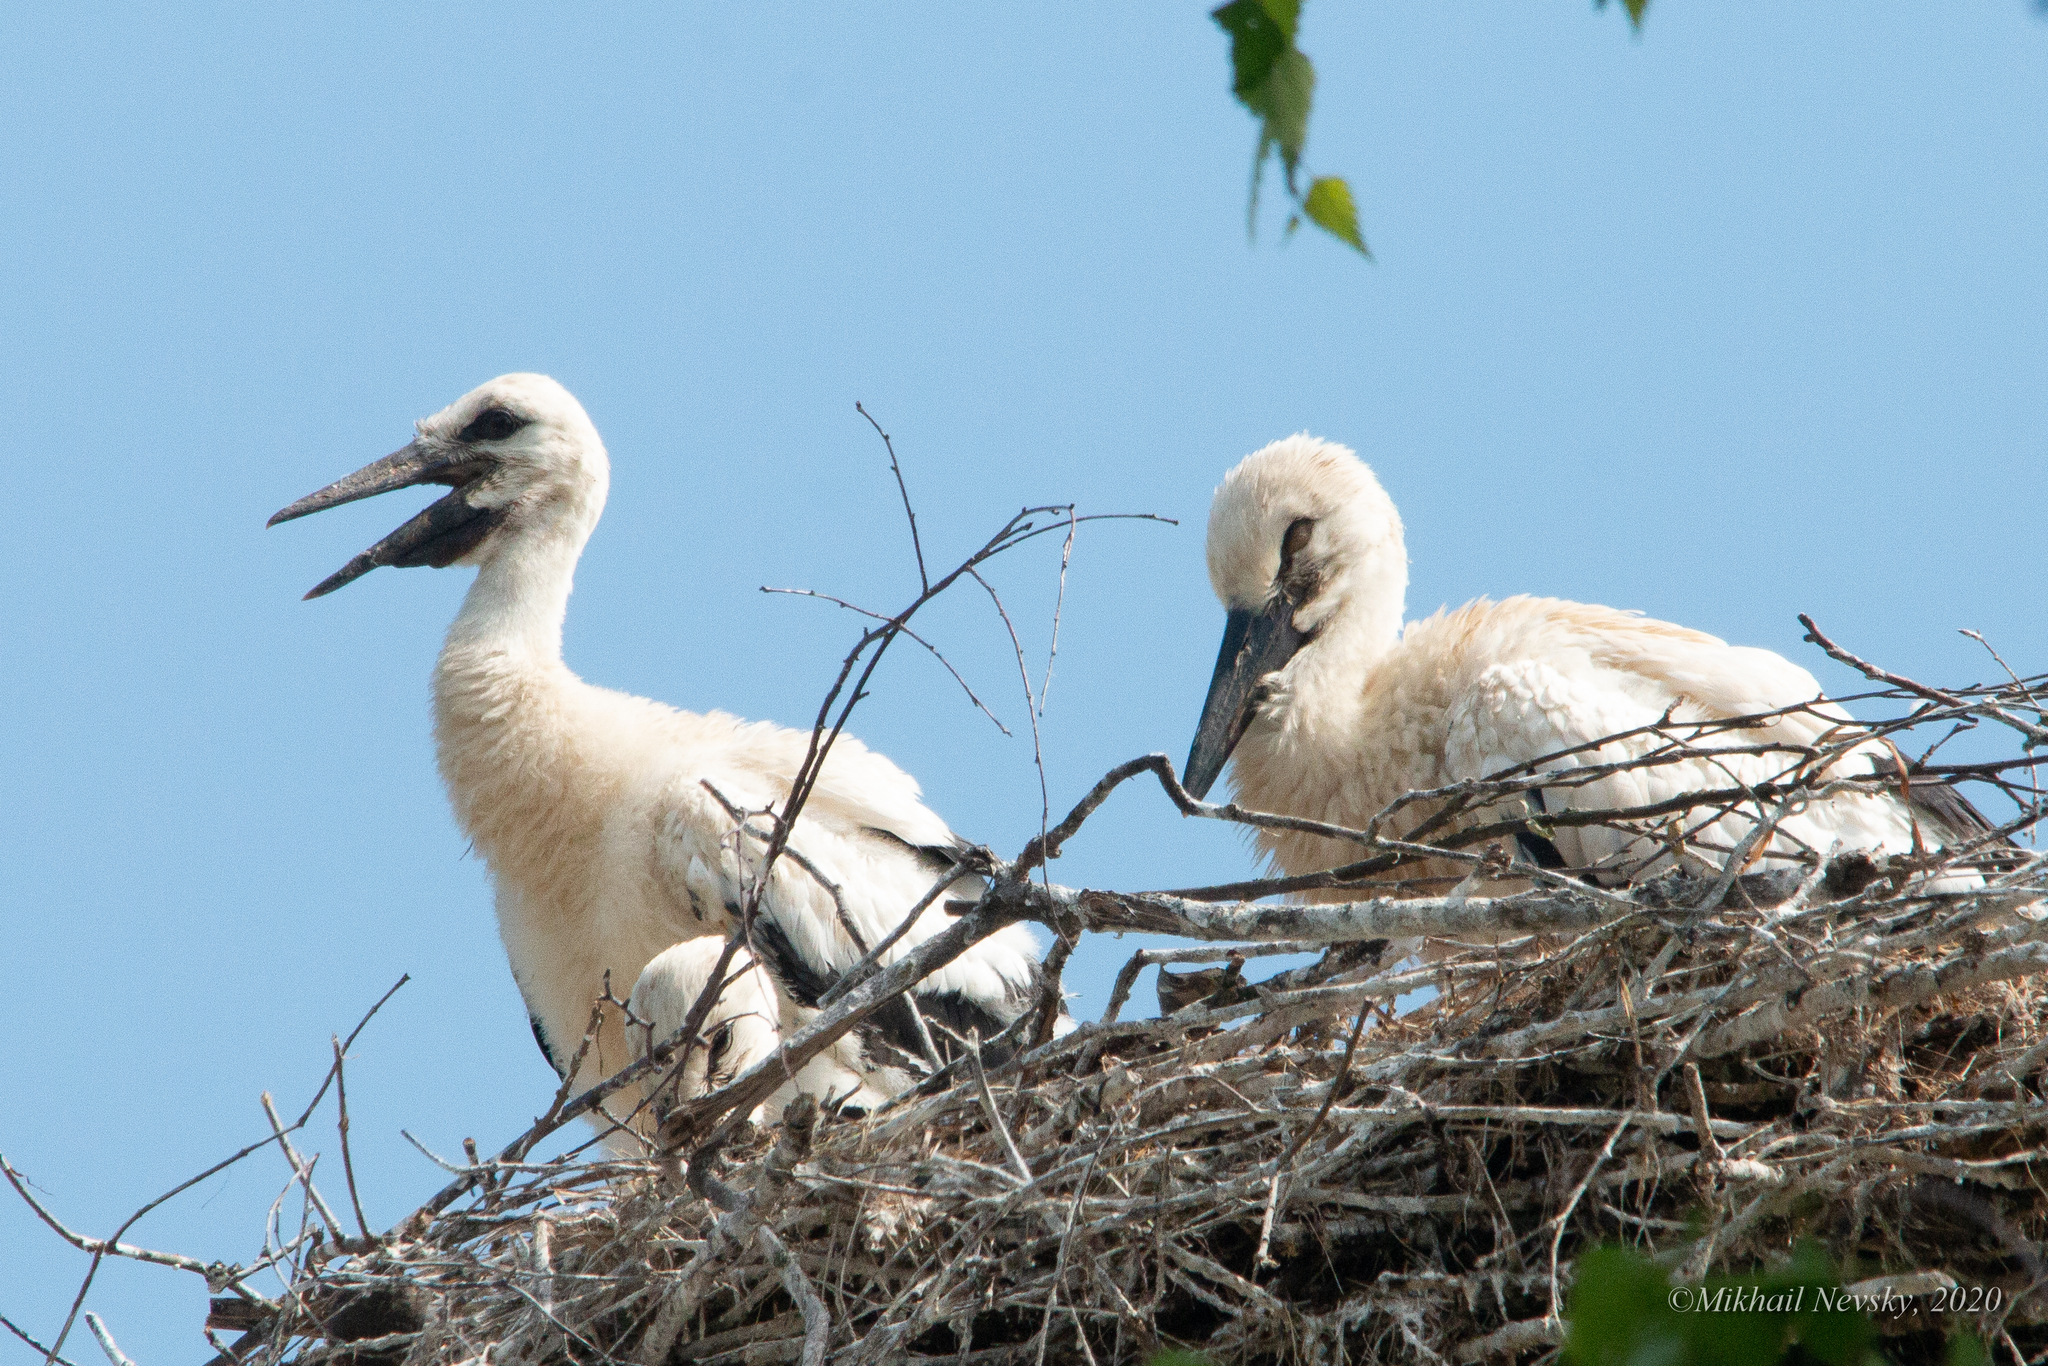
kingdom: Animalia
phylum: Chordata
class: Aves
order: Ciconiiformes
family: Ciconiidae
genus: Ciconia
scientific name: Ciconia ciconia
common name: White stork
